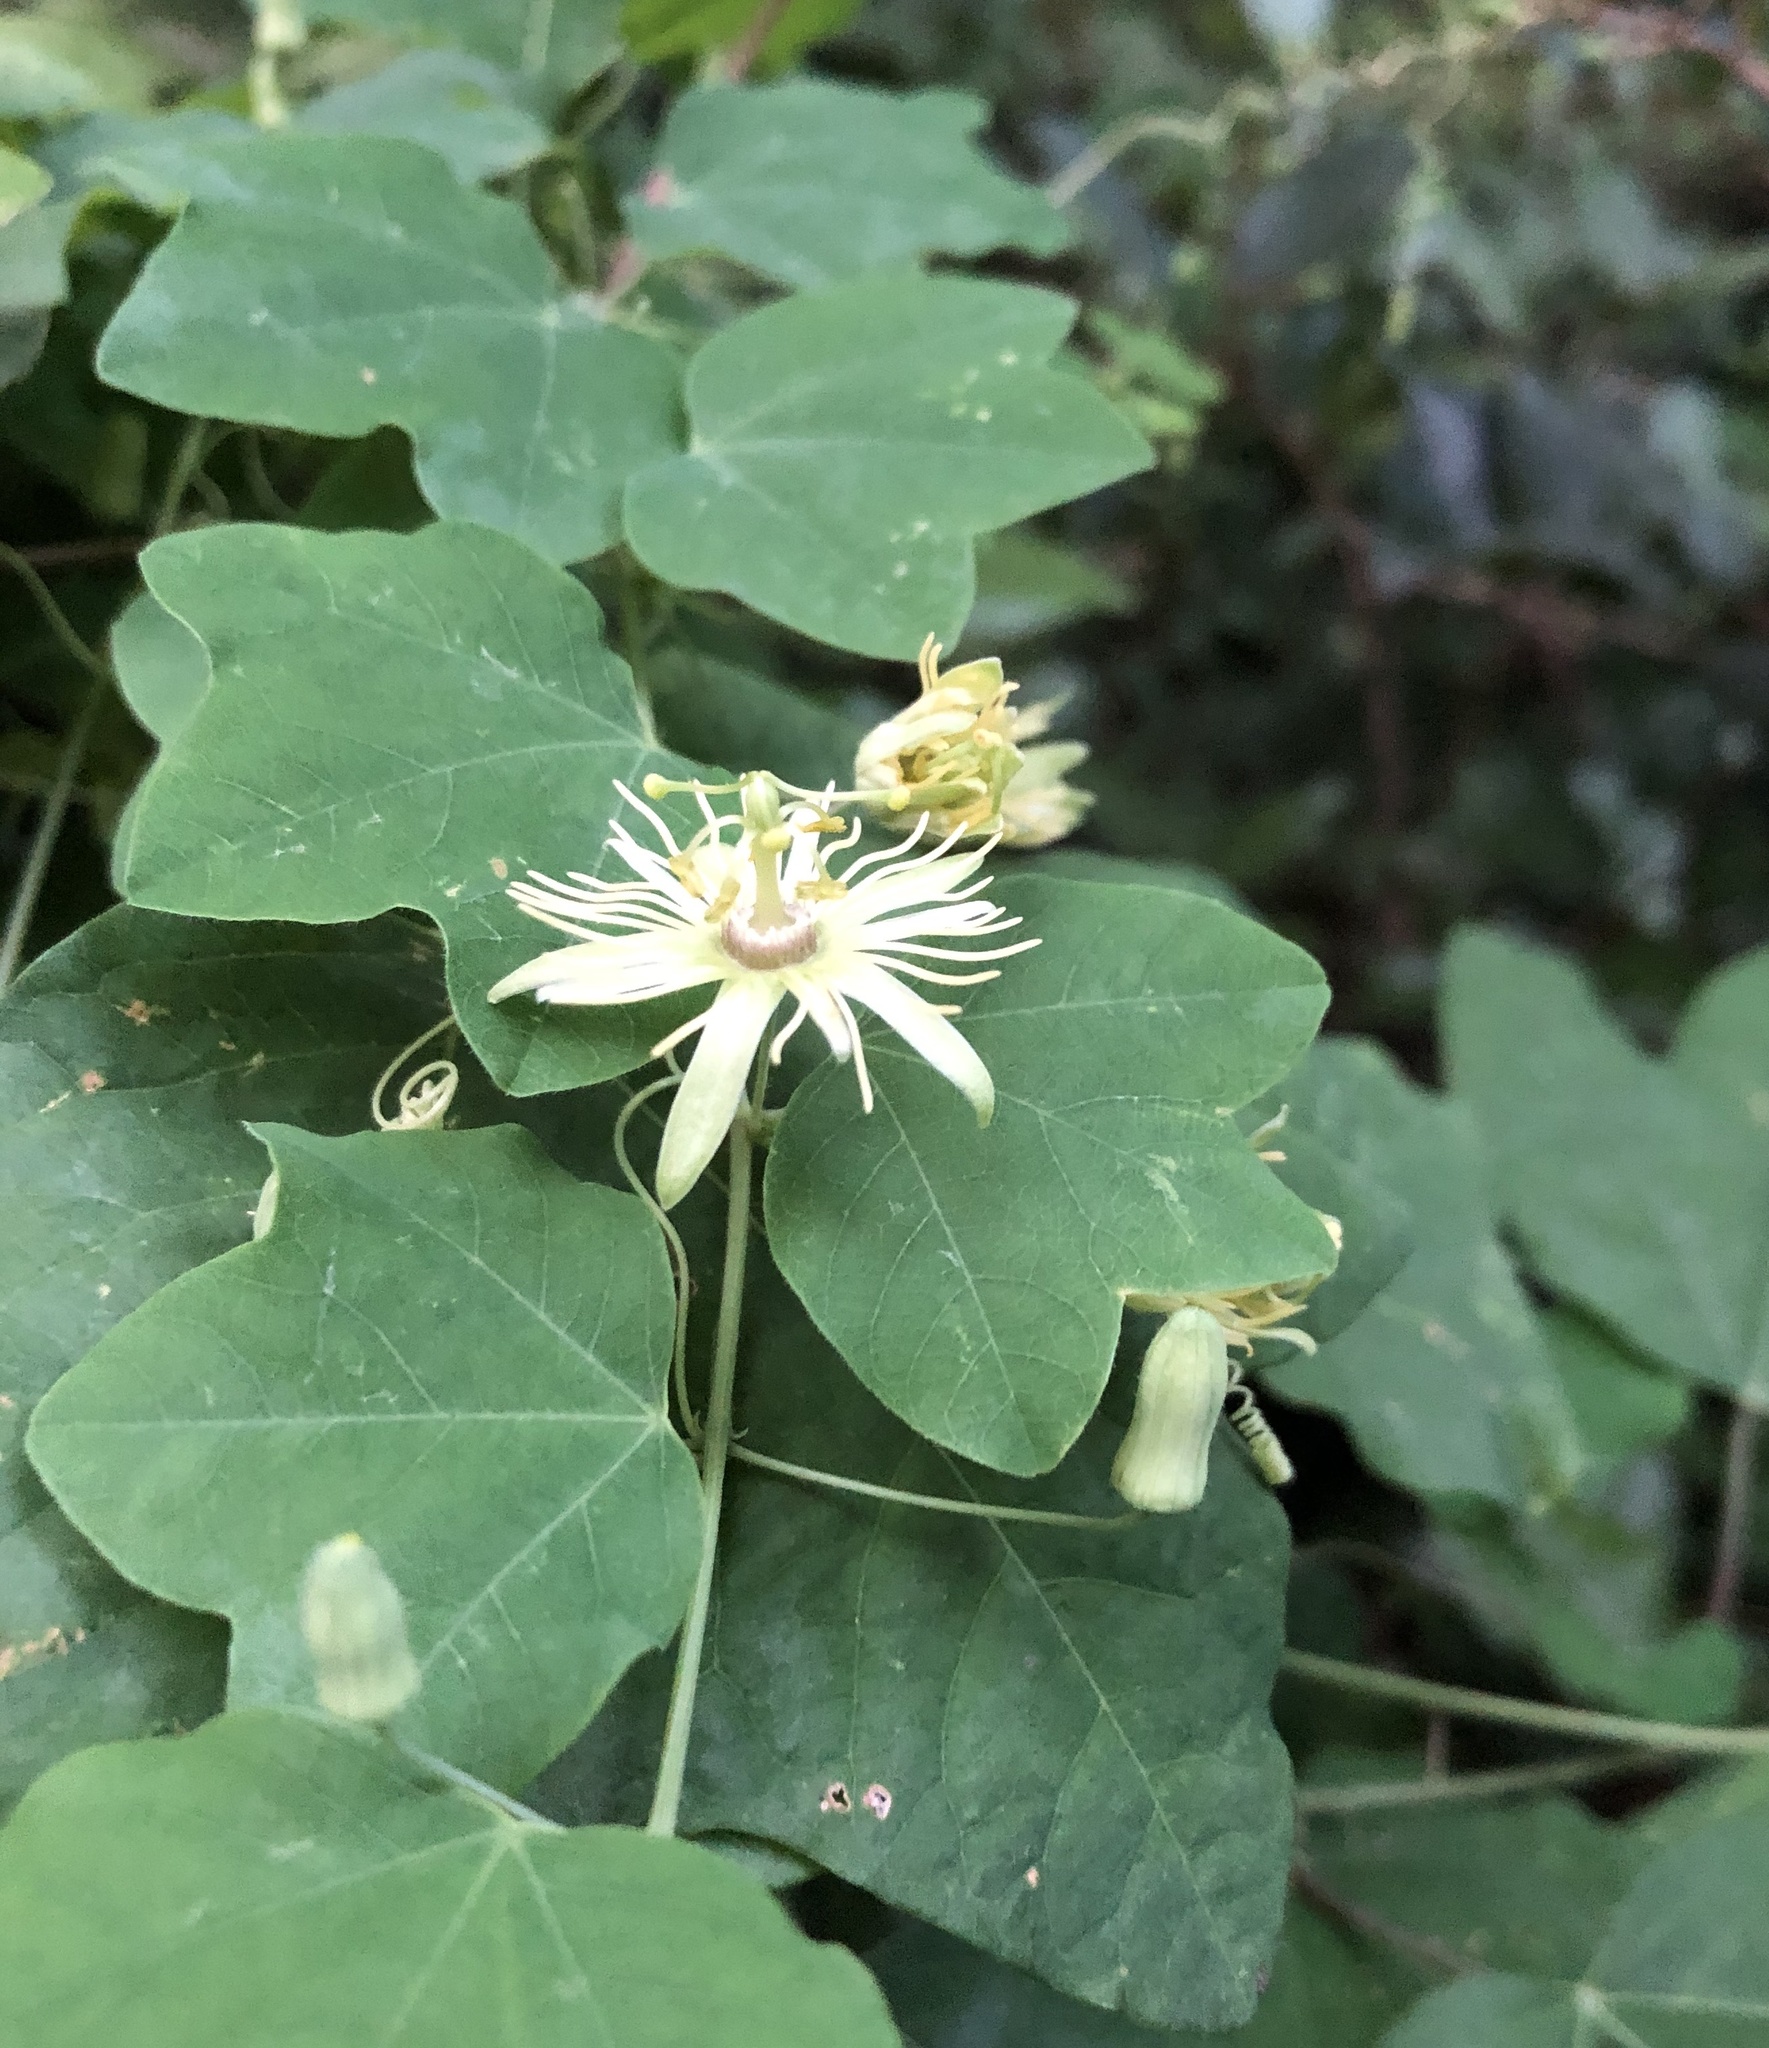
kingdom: Plantae
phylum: Tracheophyta
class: Magnoliopsida
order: Malpighiales
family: Passifloraceae
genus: Passiflora
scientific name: Passiflora lutea
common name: Yellow passionflower
